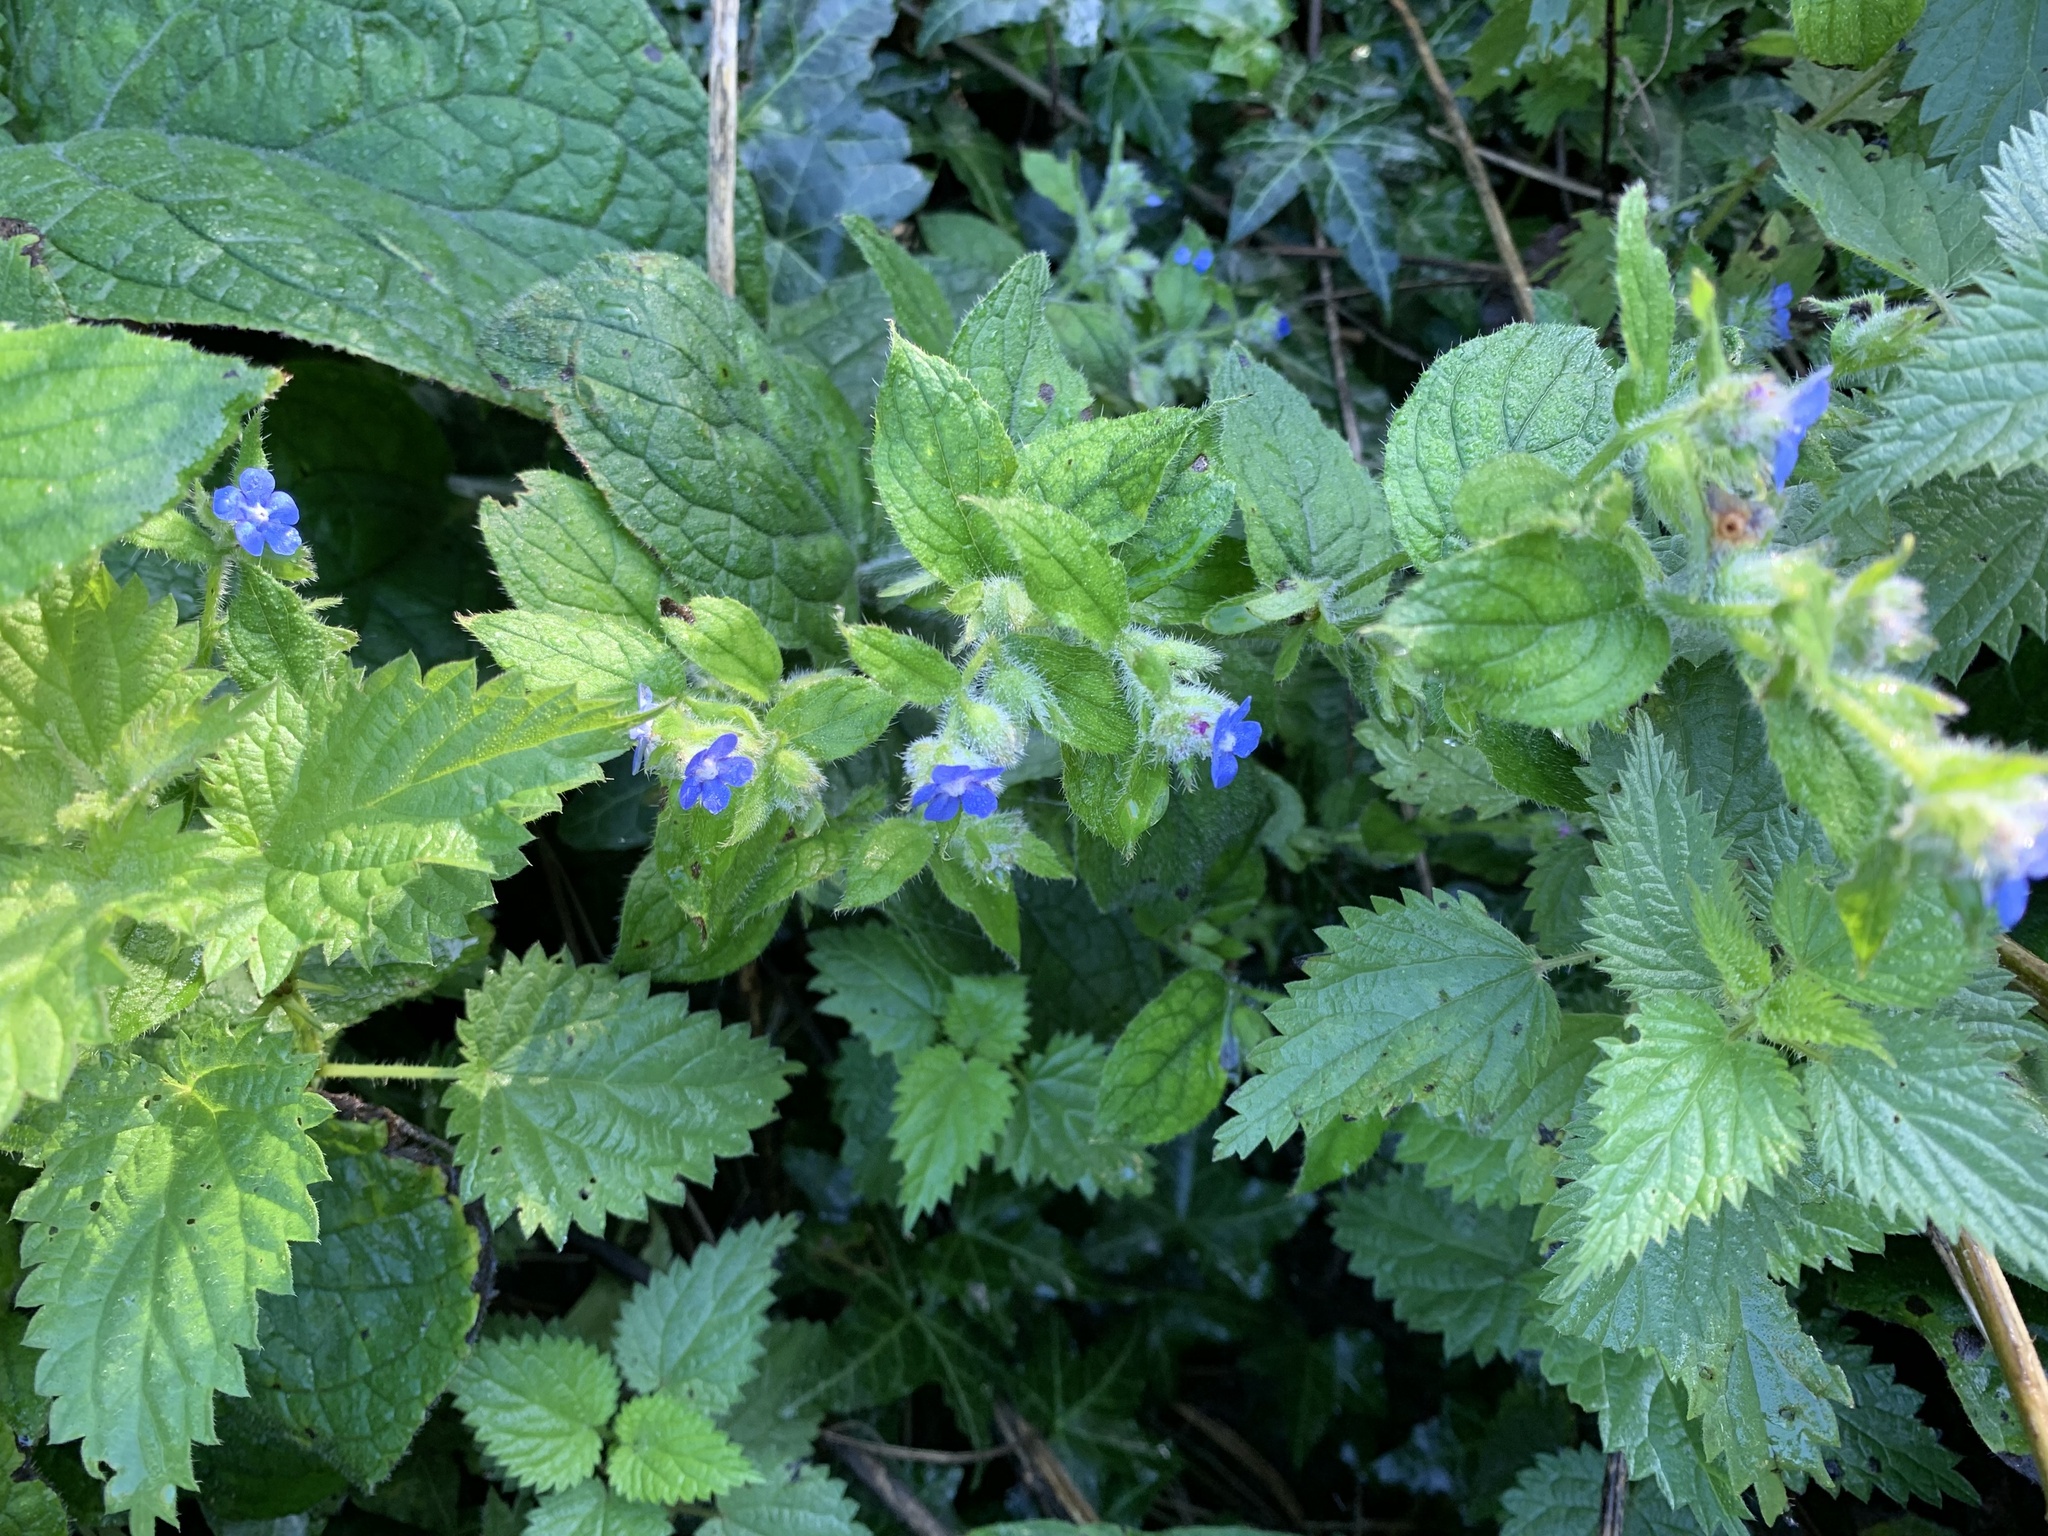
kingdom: Plantae
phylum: Tracheophyta
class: Magnoliopsida
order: Boraginales
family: Boraginaceae
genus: Pentaglottis
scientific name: Pentaglottis sempervirens
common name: Green alkanet
